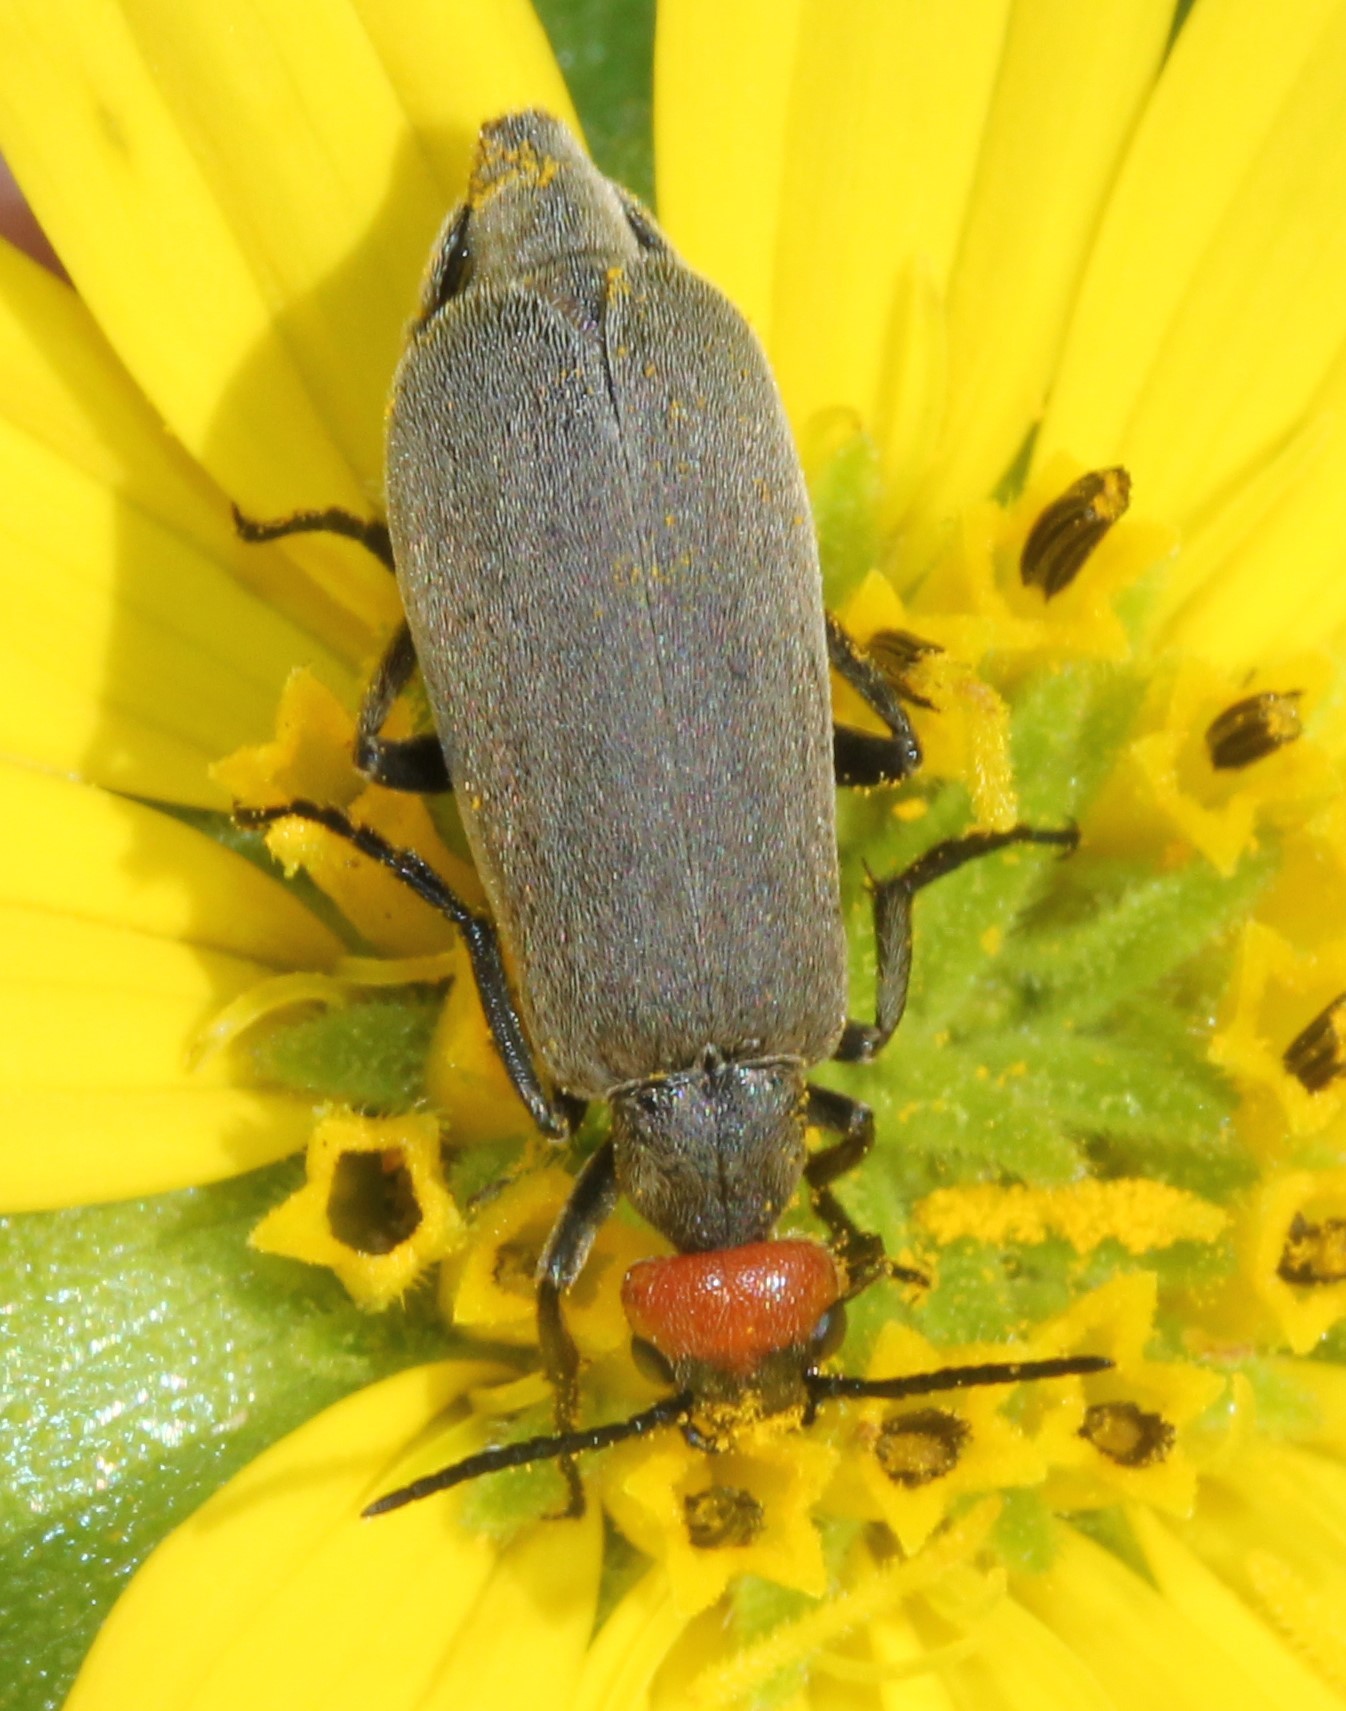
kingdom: Animalia
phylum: Arthropoda
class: Insecta
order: Coleoptera
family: Meloidae
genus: Epicauta
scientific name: Epicauta atrata
